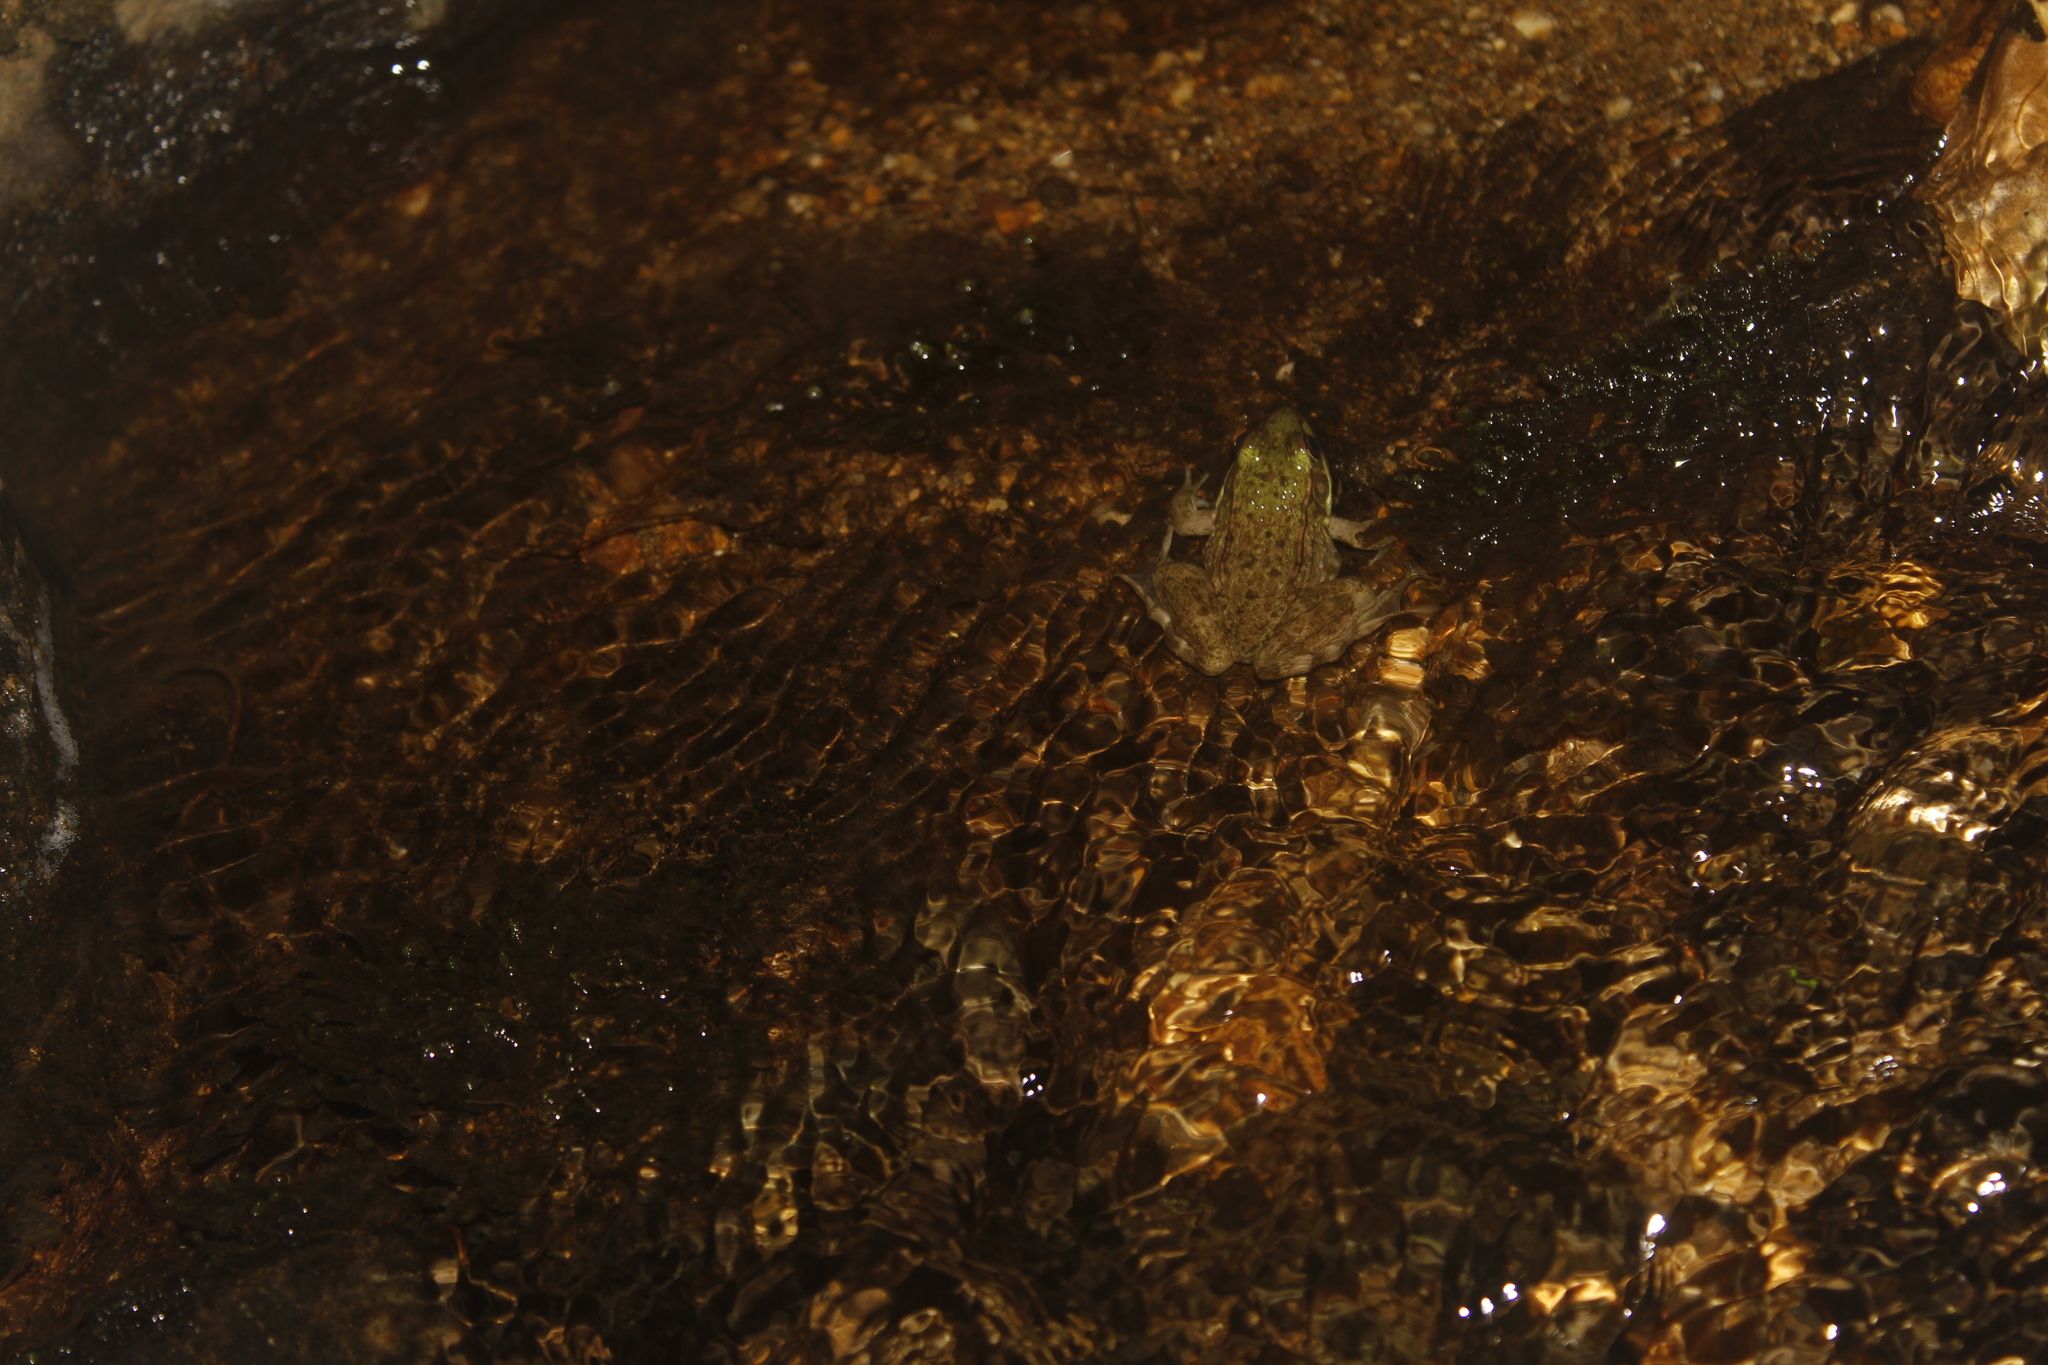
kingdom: Animalia
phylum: Chordata
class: Amphibia
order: Anura
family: Ranidae
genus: Lithobates
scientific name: Lithobates clamitans
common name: Green frog
